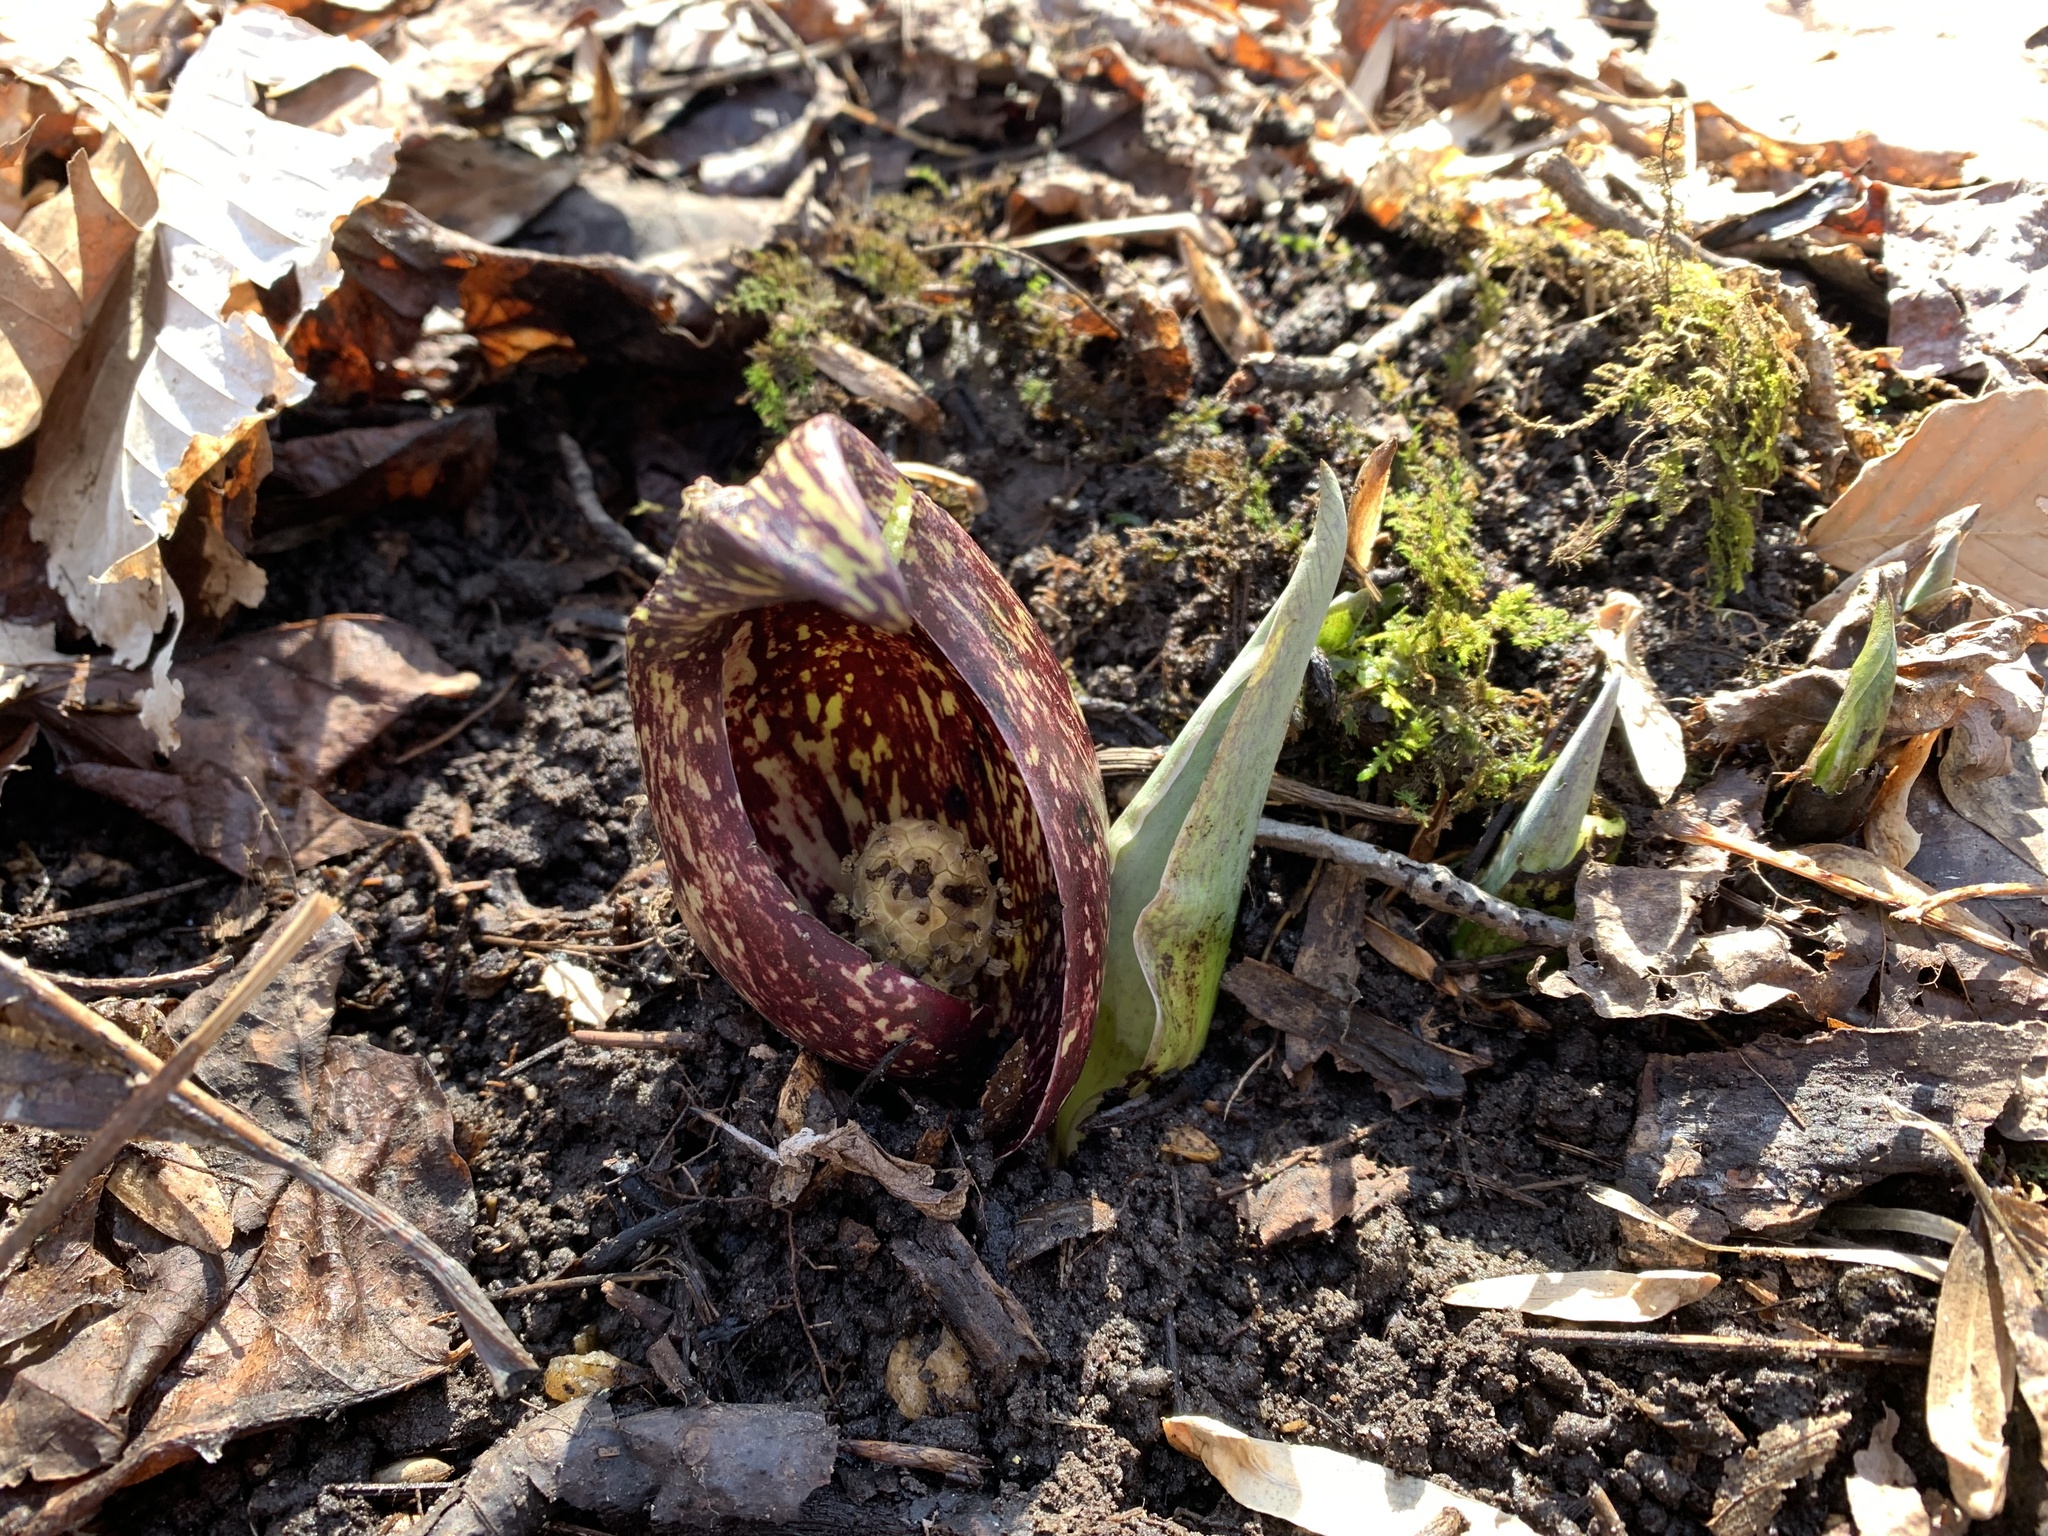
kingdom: Plantae
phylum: Tracheophyta
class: Liliopsida
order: Alismatales
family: Araceae
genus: Symplocarpus
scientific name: Symplocarpus foetidus
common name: Eastern skunk cabbage
